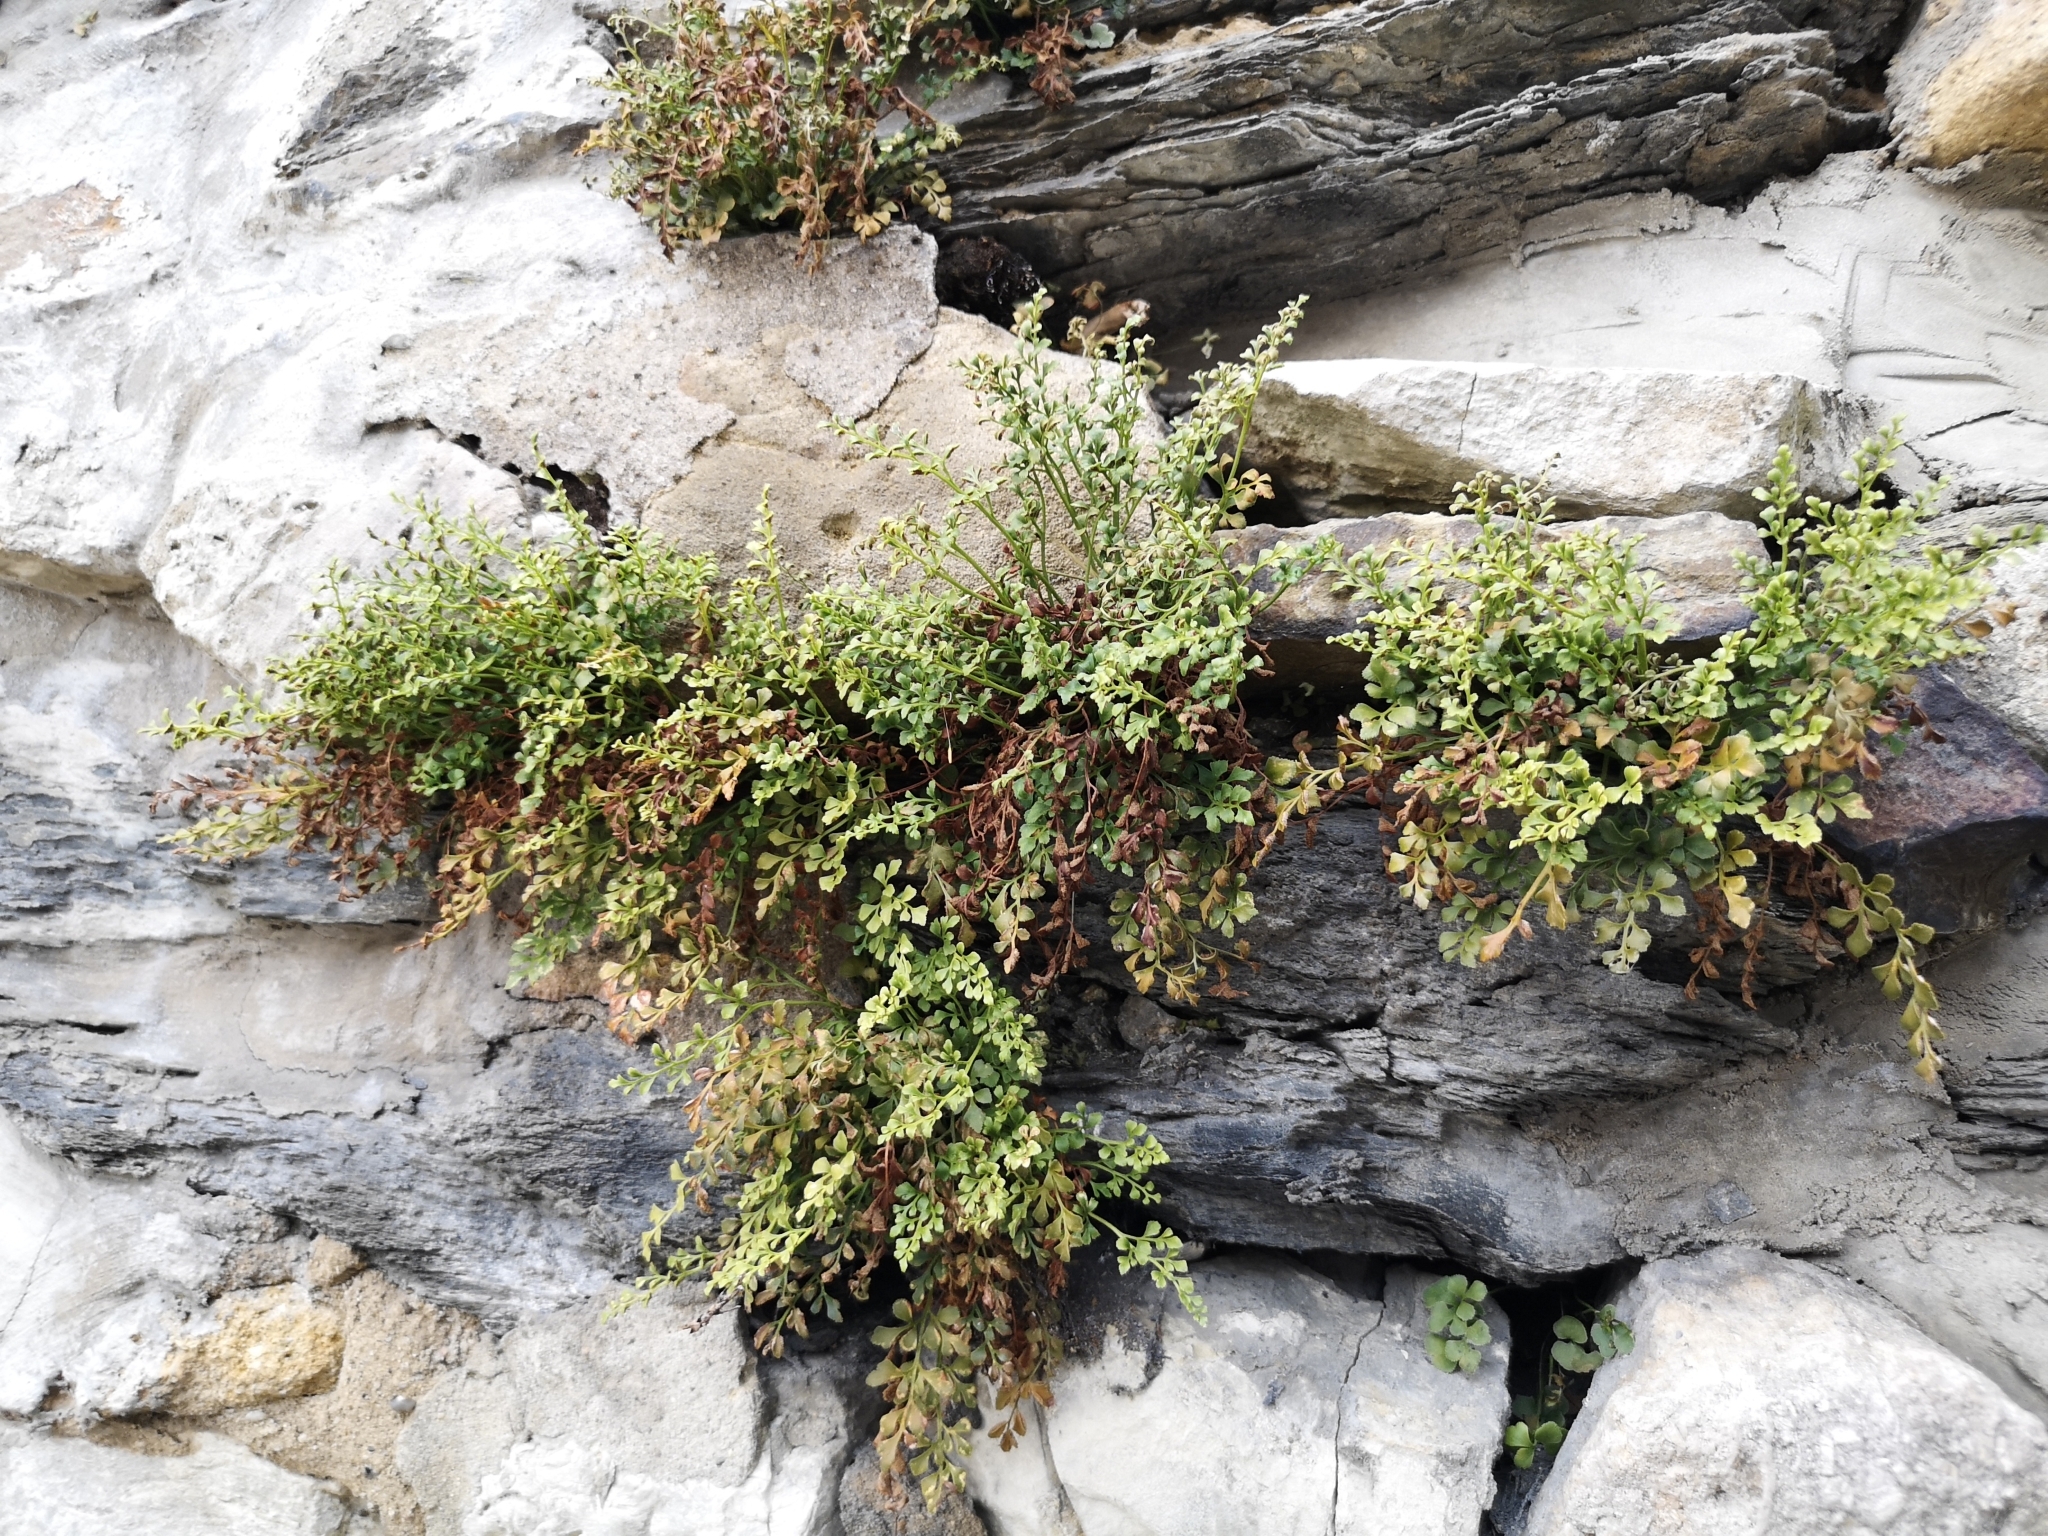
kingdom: Plantae
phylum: Tracheophyta
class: Polypodiopsida
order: Polypodiales
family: Aspleniaceae
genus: Asplenium
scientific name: Asplenium ruta-muraria
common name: Wall-rue
